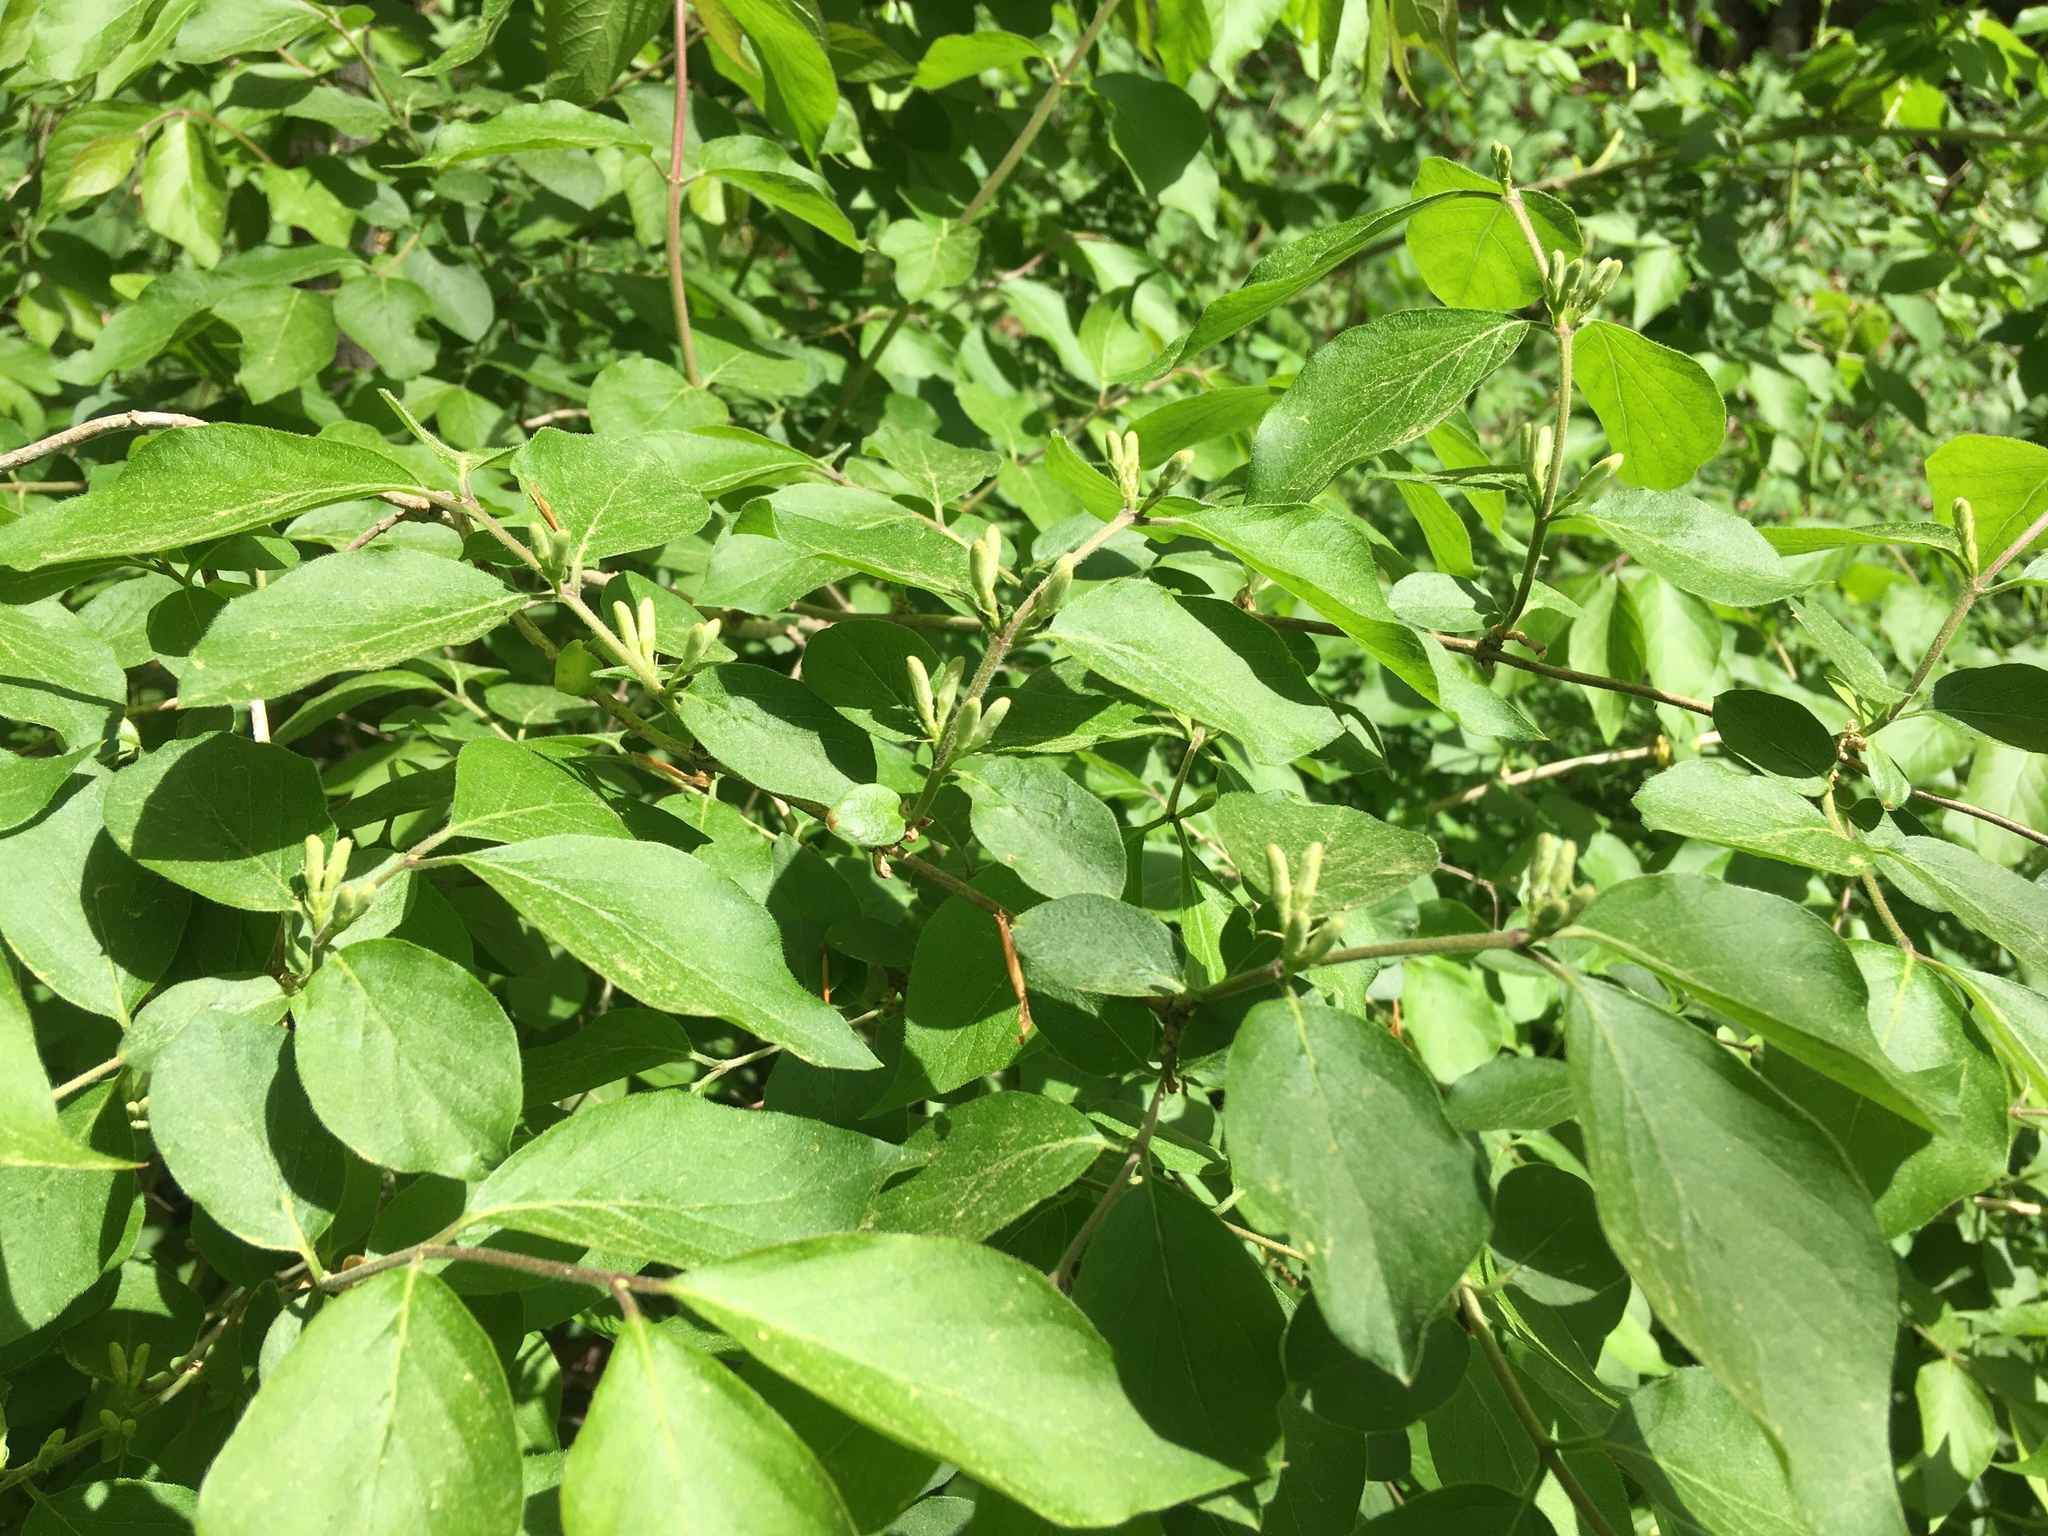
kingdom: Plantae
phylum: Tracheophyta
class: Magnoliopsida
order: Dipsacales
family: Caprifoliaceae
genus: Lonicera
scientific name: Lonicera maackii
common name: Amur honeysuckle
